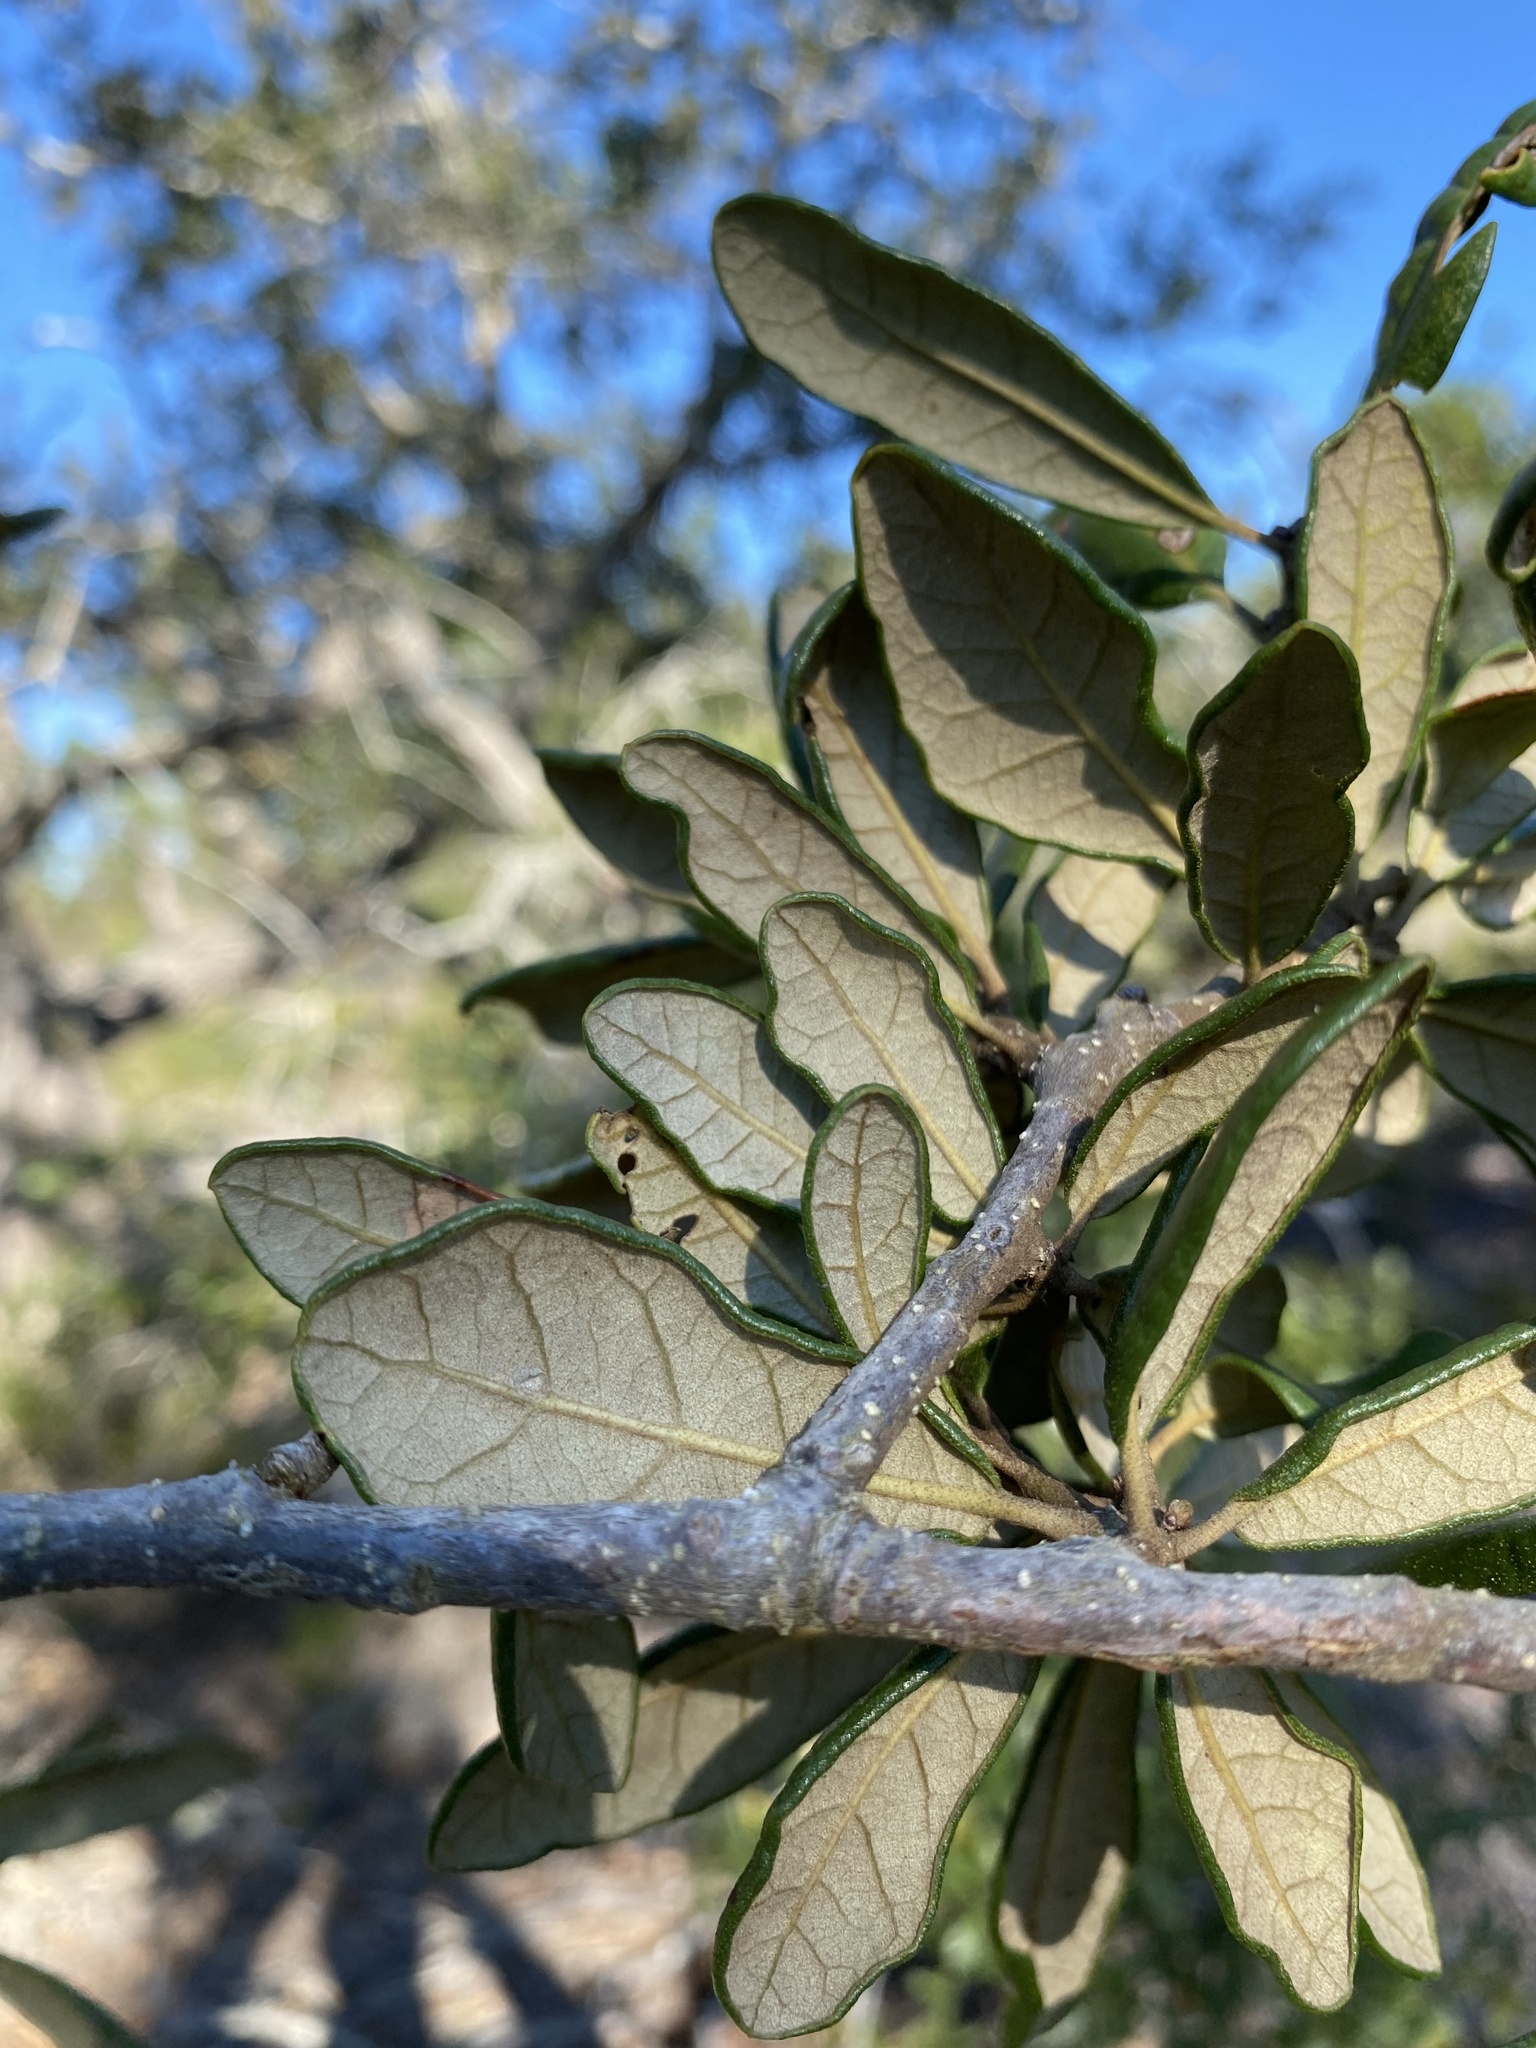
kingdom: Plantae
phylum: Tracheophyta
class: Magnoliopsida
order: Fagales
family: Fagaceae
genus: Quercus
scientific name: Quercus geminata
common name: Sand live oak
